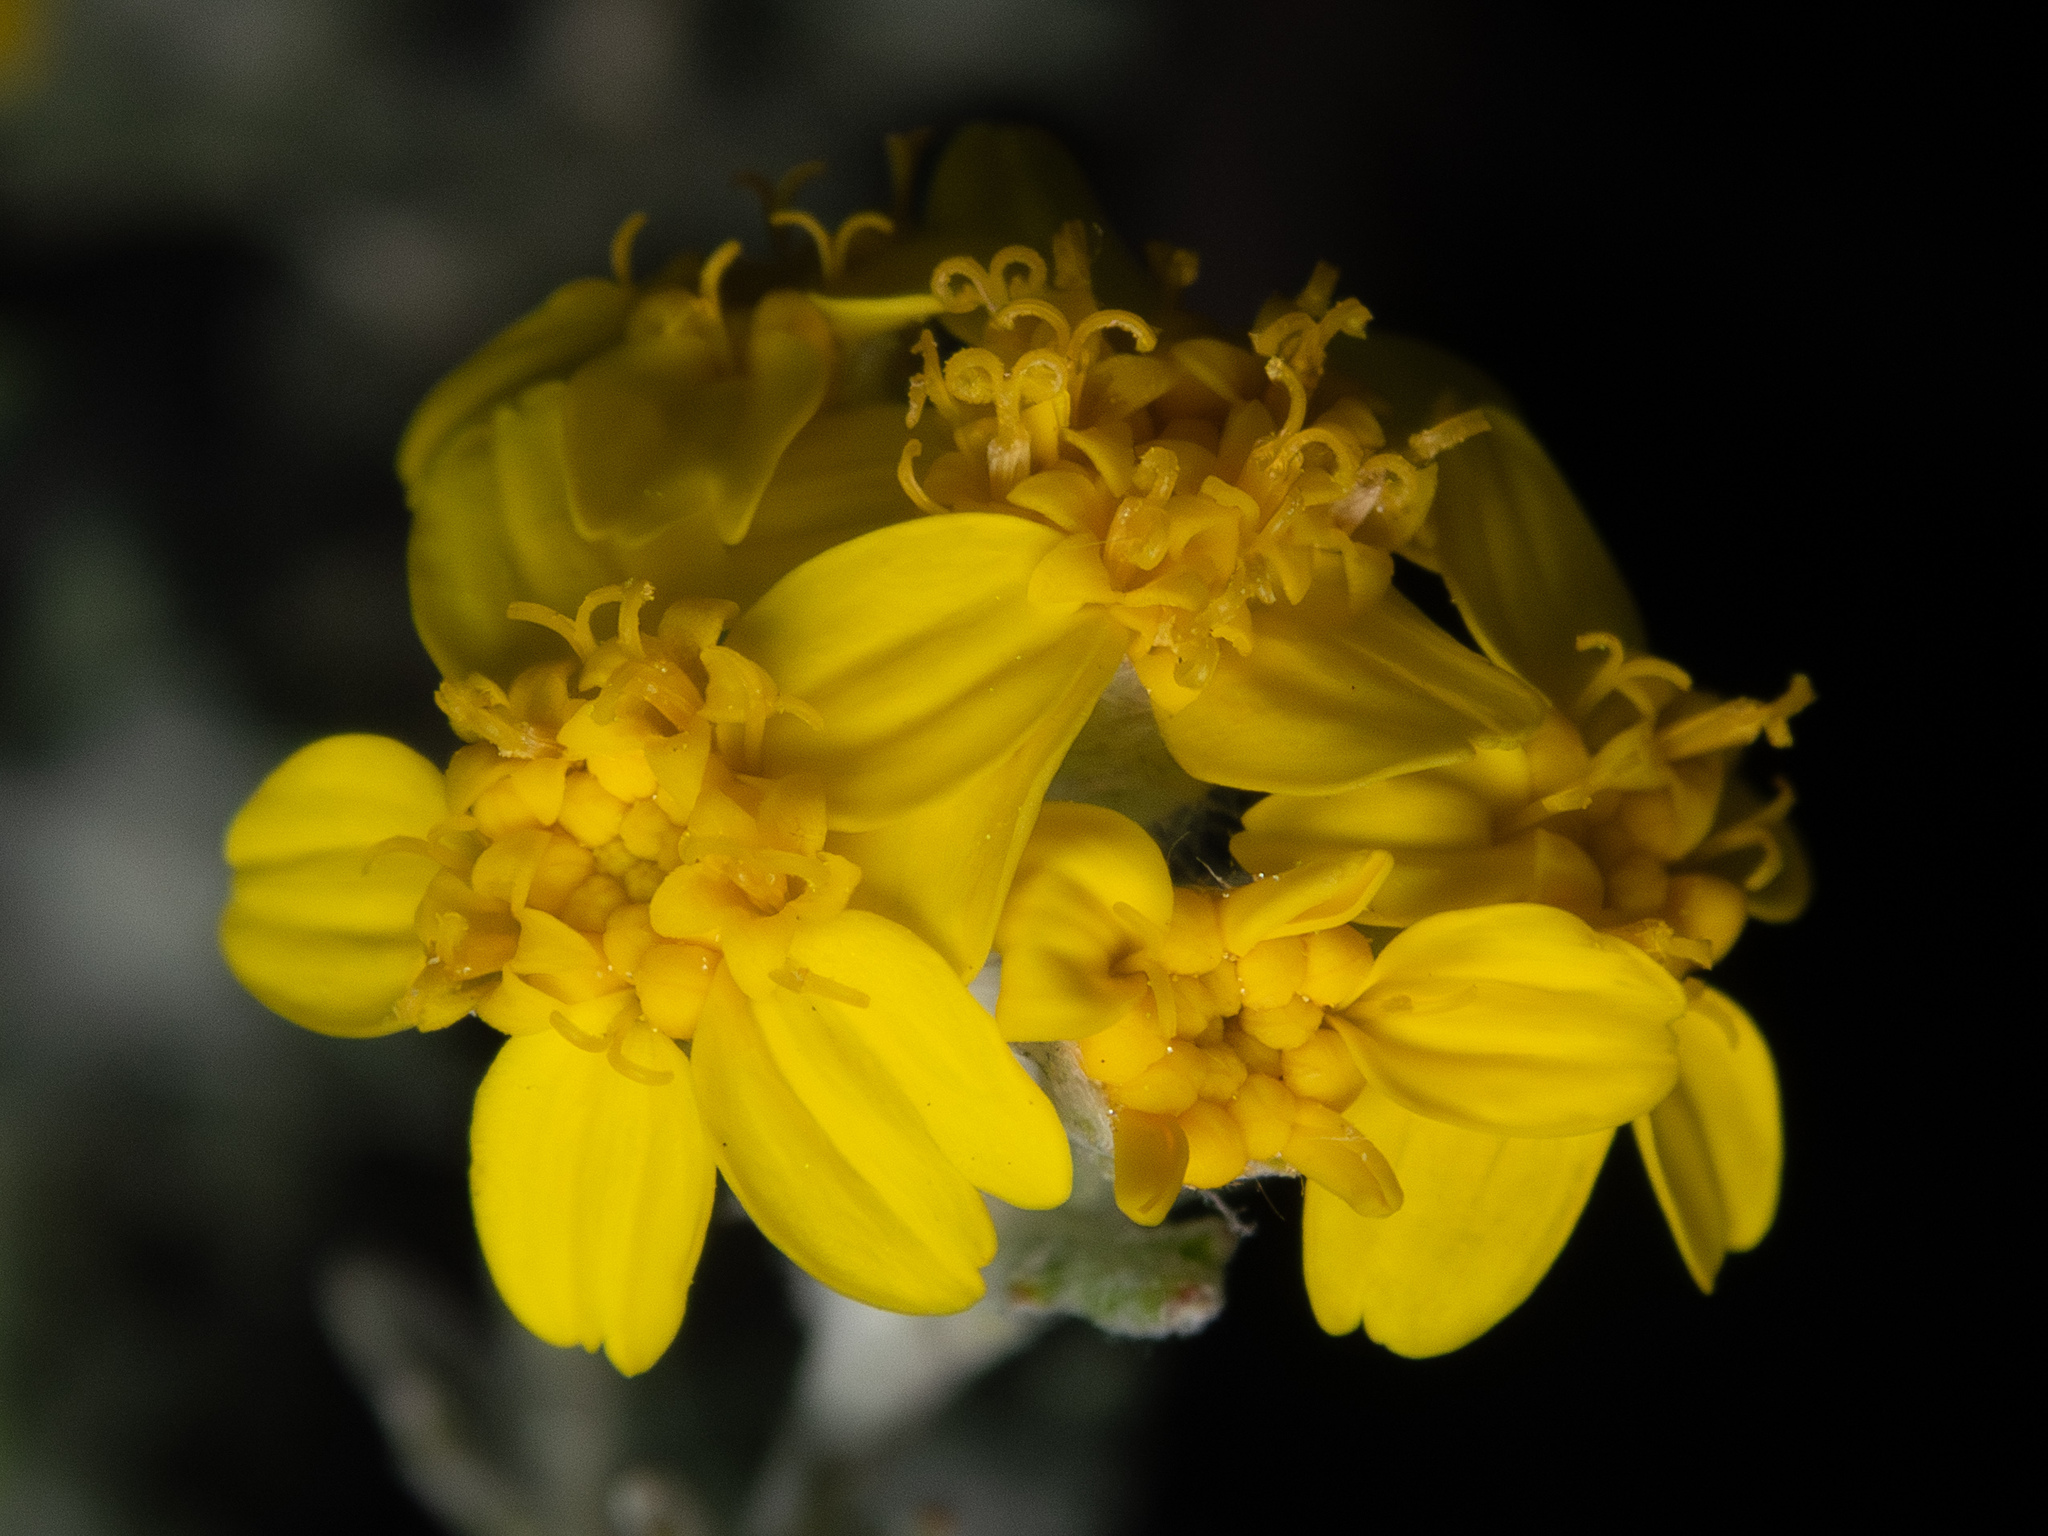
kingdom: Plantae
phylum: Tracheophyta
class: Magnoliopsida
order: Asterales
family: Asteraceae
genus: Eriophyllum
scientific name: Eriophyllum confertiflorum
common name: Golden-yarrow
